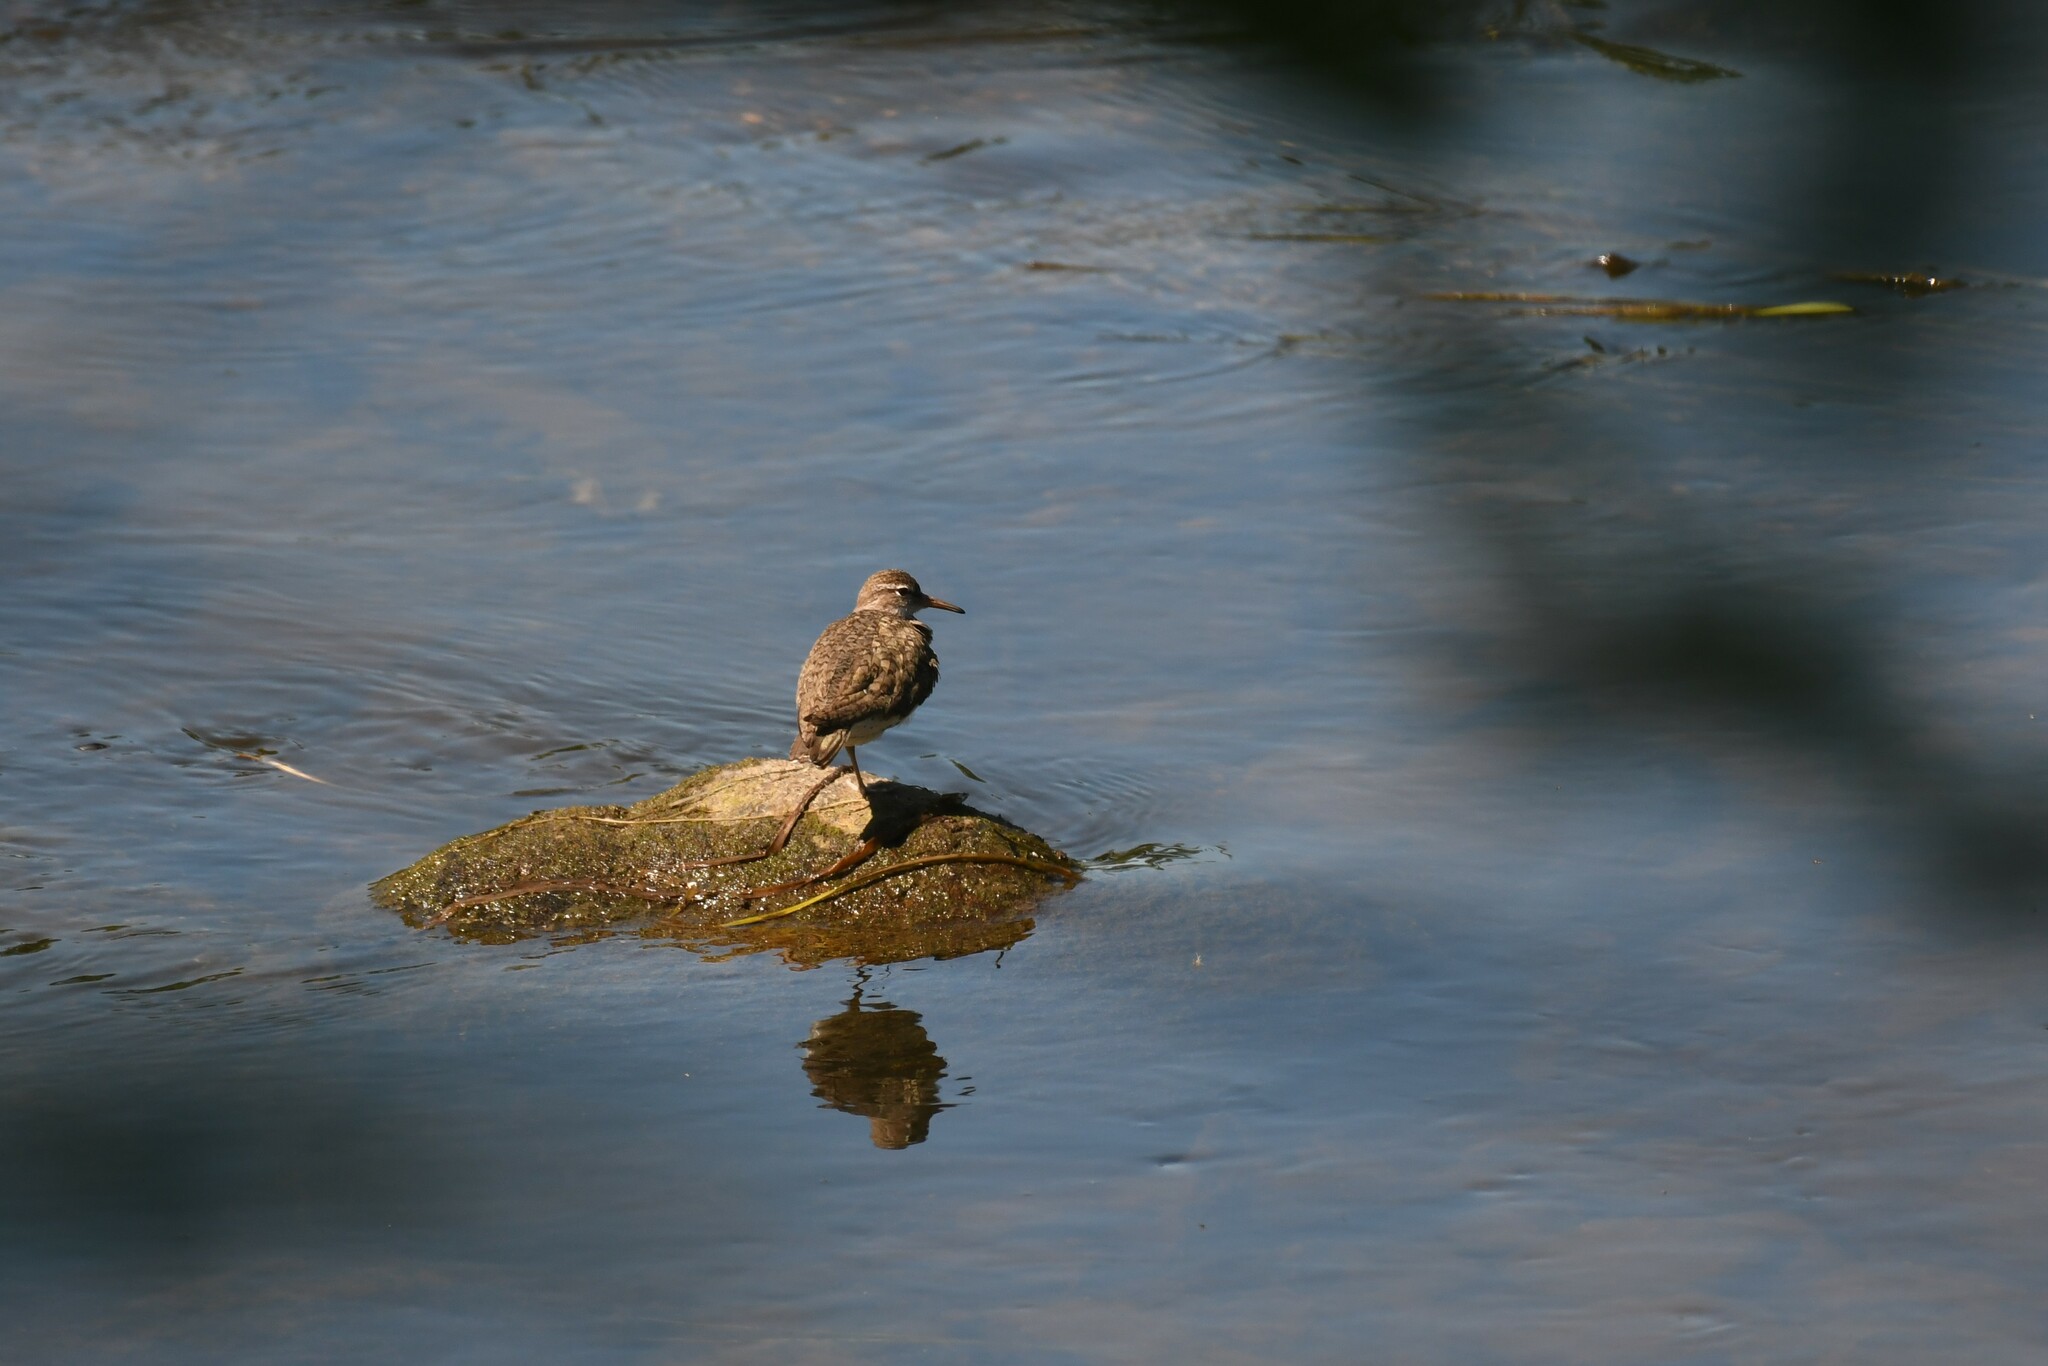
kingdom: Animalia
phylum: Chordata
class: Aves
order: Charadriiformes
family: Scolopacidae
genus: Actitis
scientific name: Actitis macularius
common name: Spotted sandpiper
